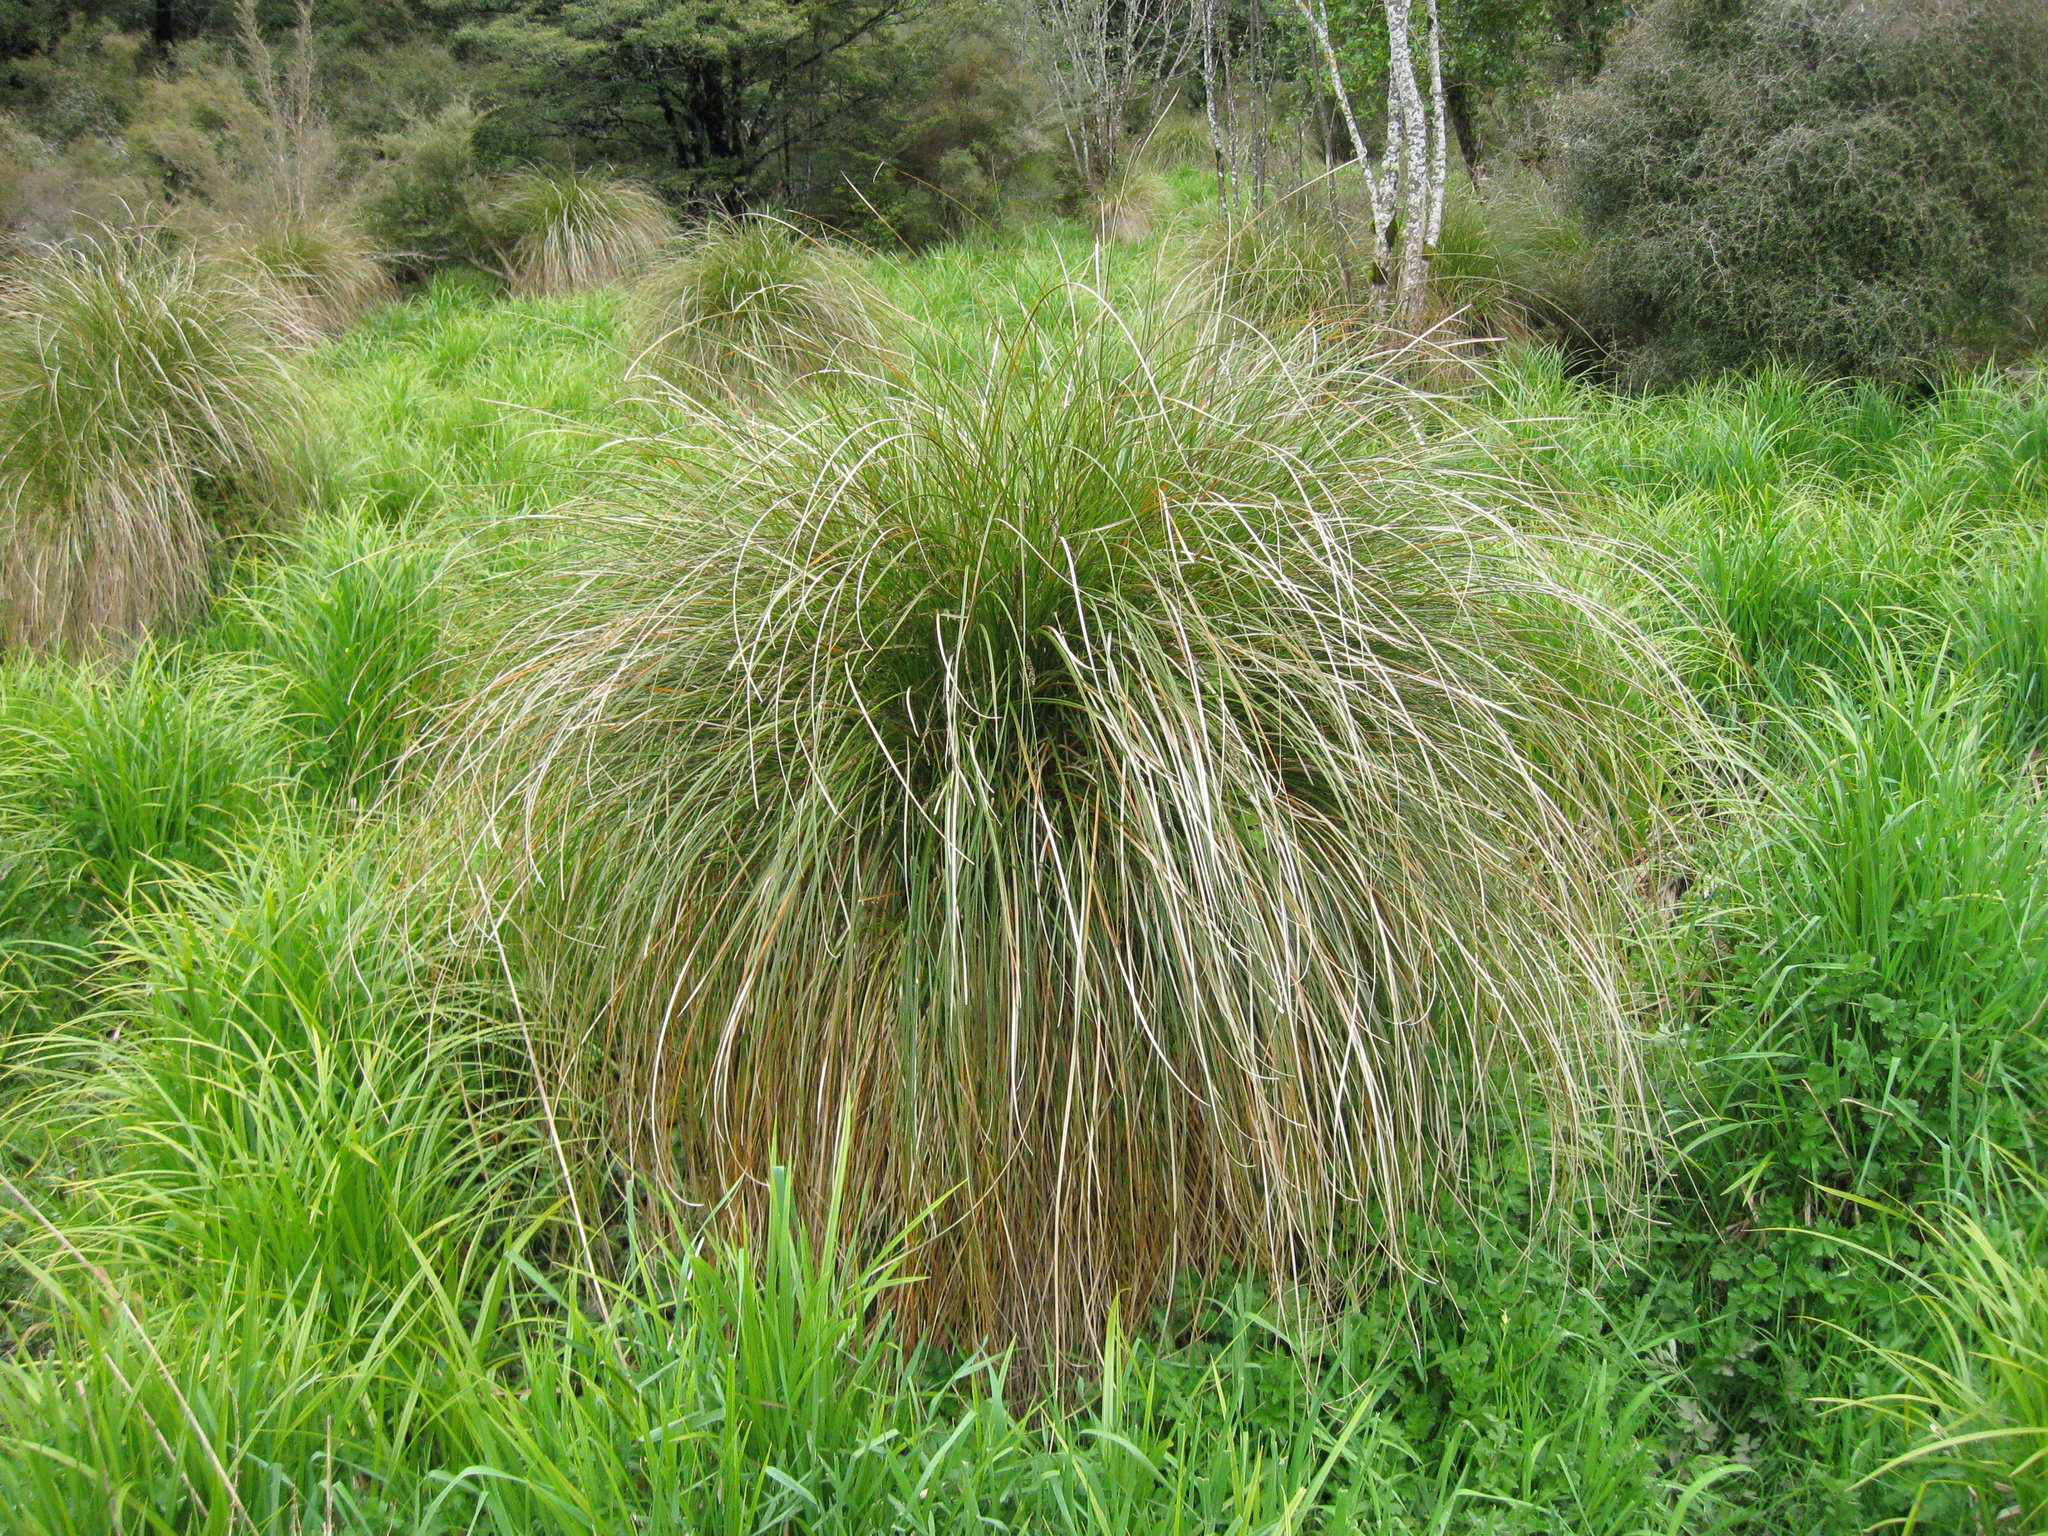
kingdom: Plantae
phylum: Tracheophyta
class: Liliopsida
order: Poales
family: Cyperaceae
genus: Carex
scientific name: Carex secta
